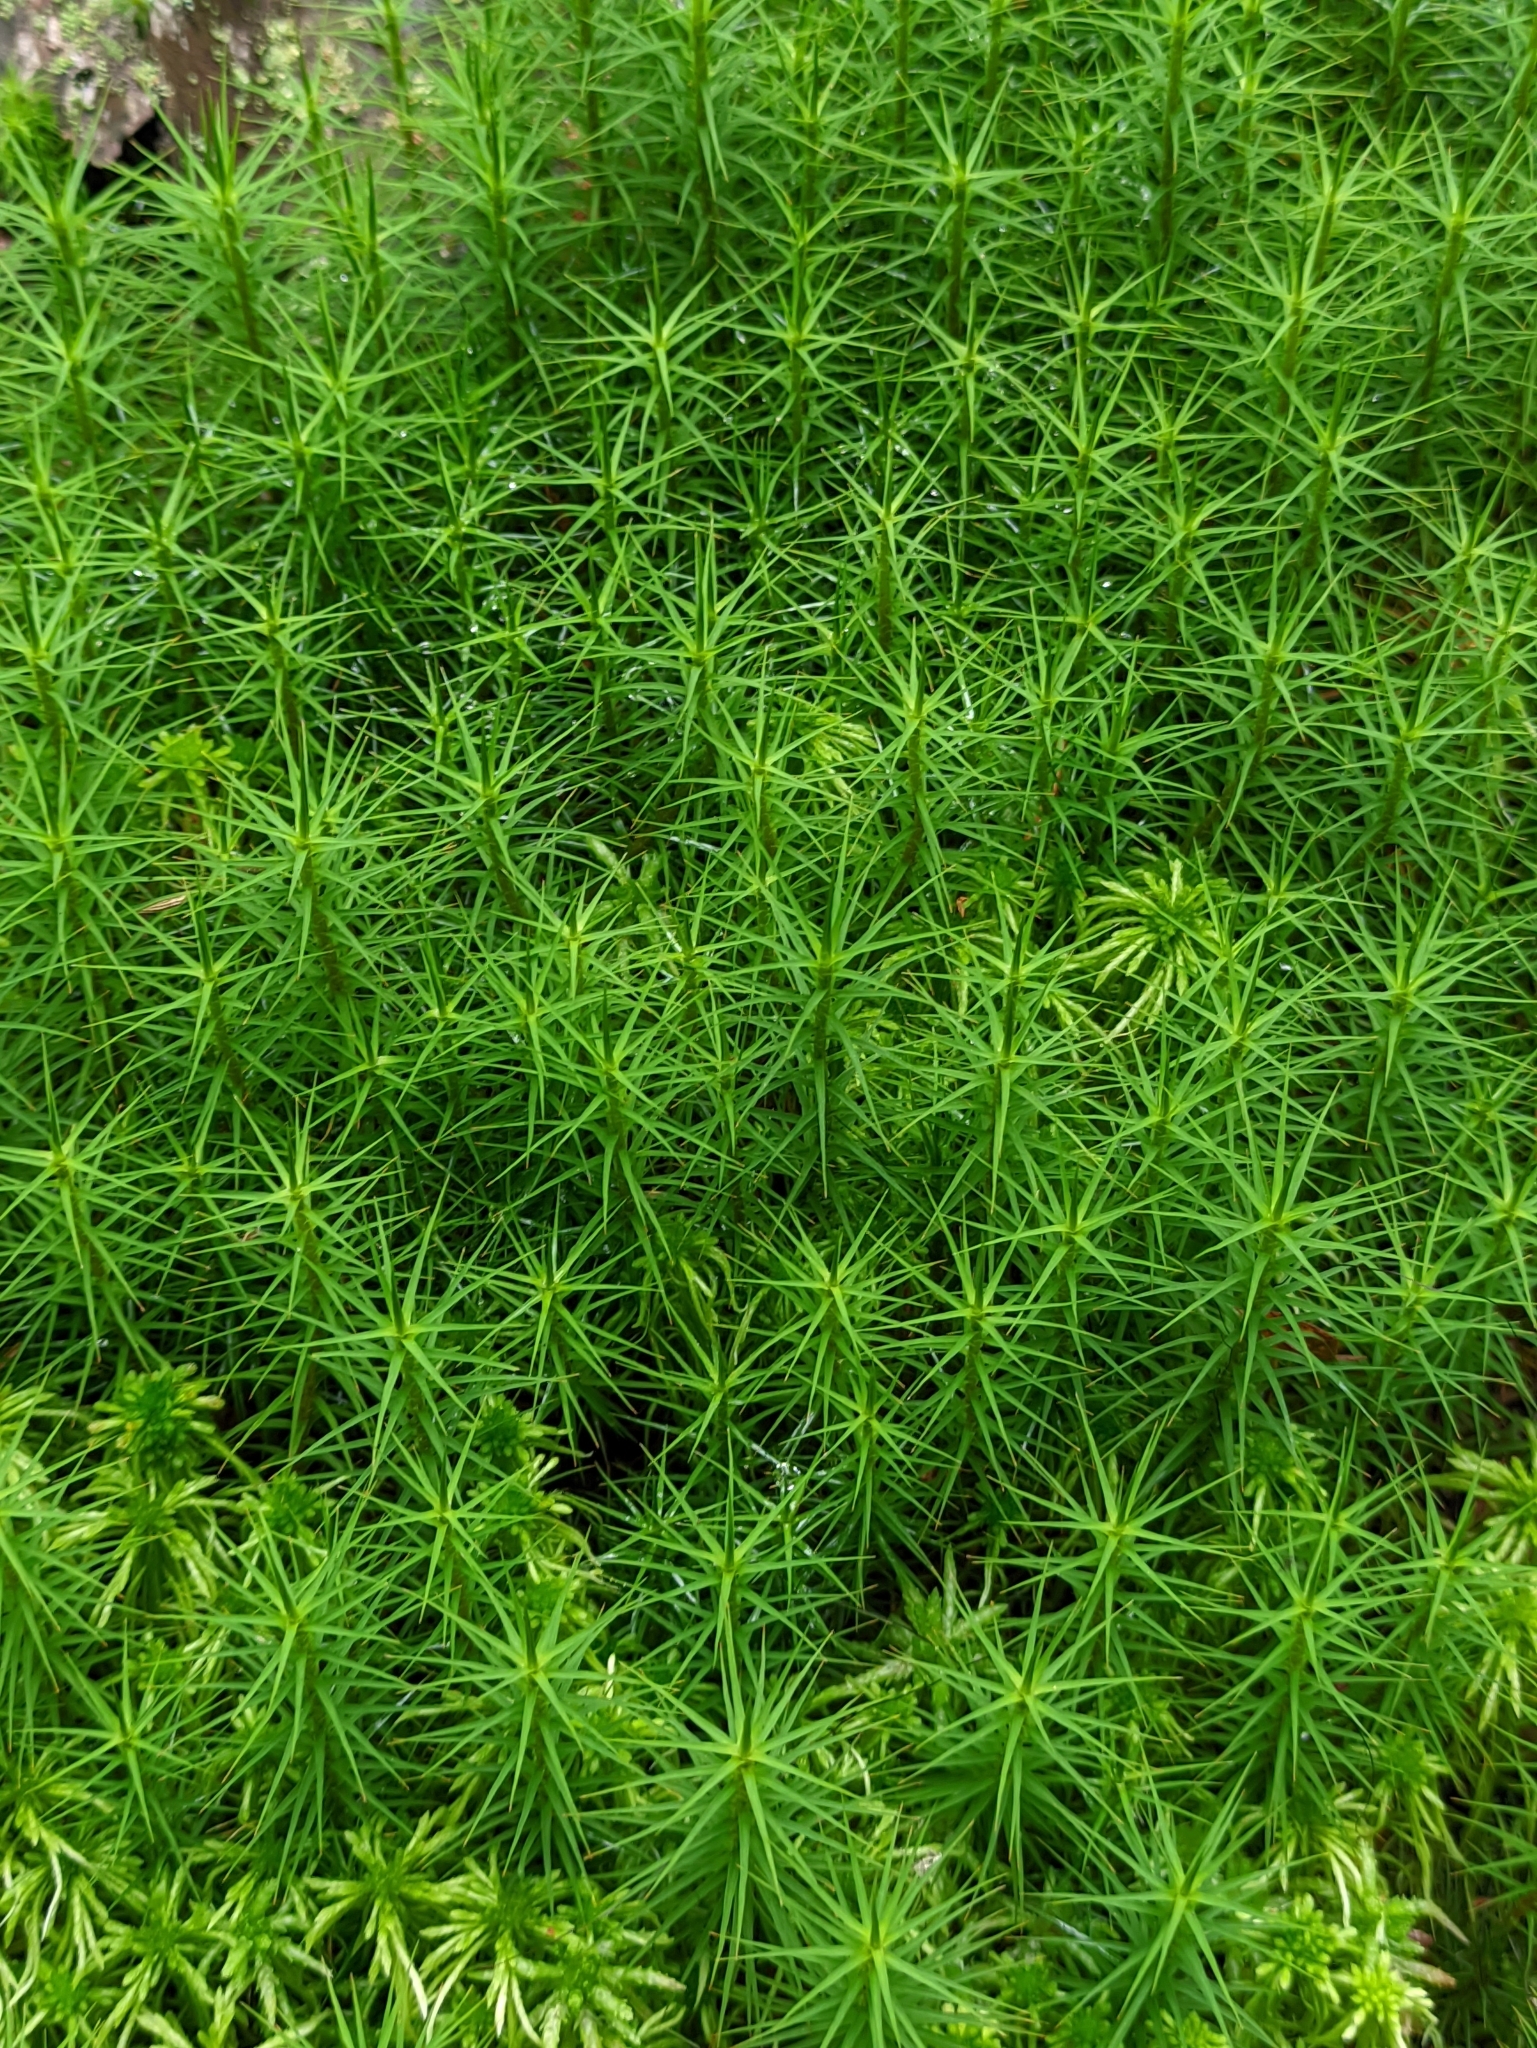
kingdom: Plantae
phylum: Bryophyta
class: Polytrichopsida
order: Polytrichales
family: Polytrichaceae
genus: Polytrichum
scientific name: Polytrichum commune
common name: Common haircap
